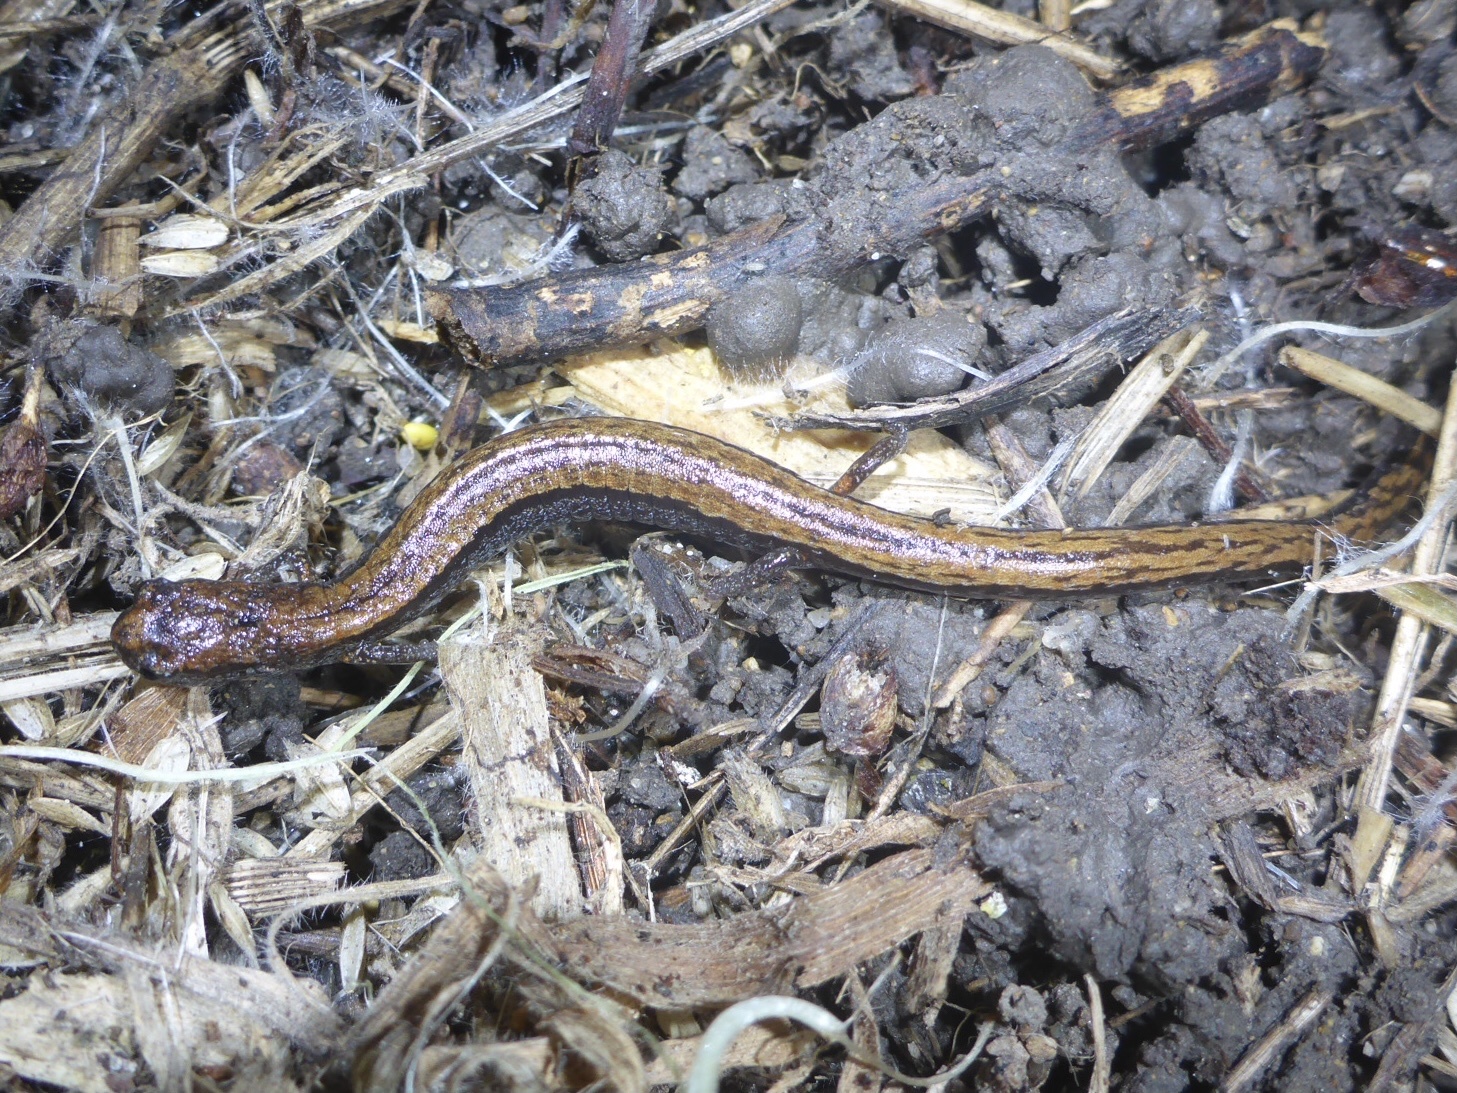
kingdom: Animalia
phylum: Chordata
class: Amphibia
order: Caudata
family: Plethodontidae
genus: Batrachoseps
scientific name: Batrachoseps attenuatus
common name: California slender salamander
